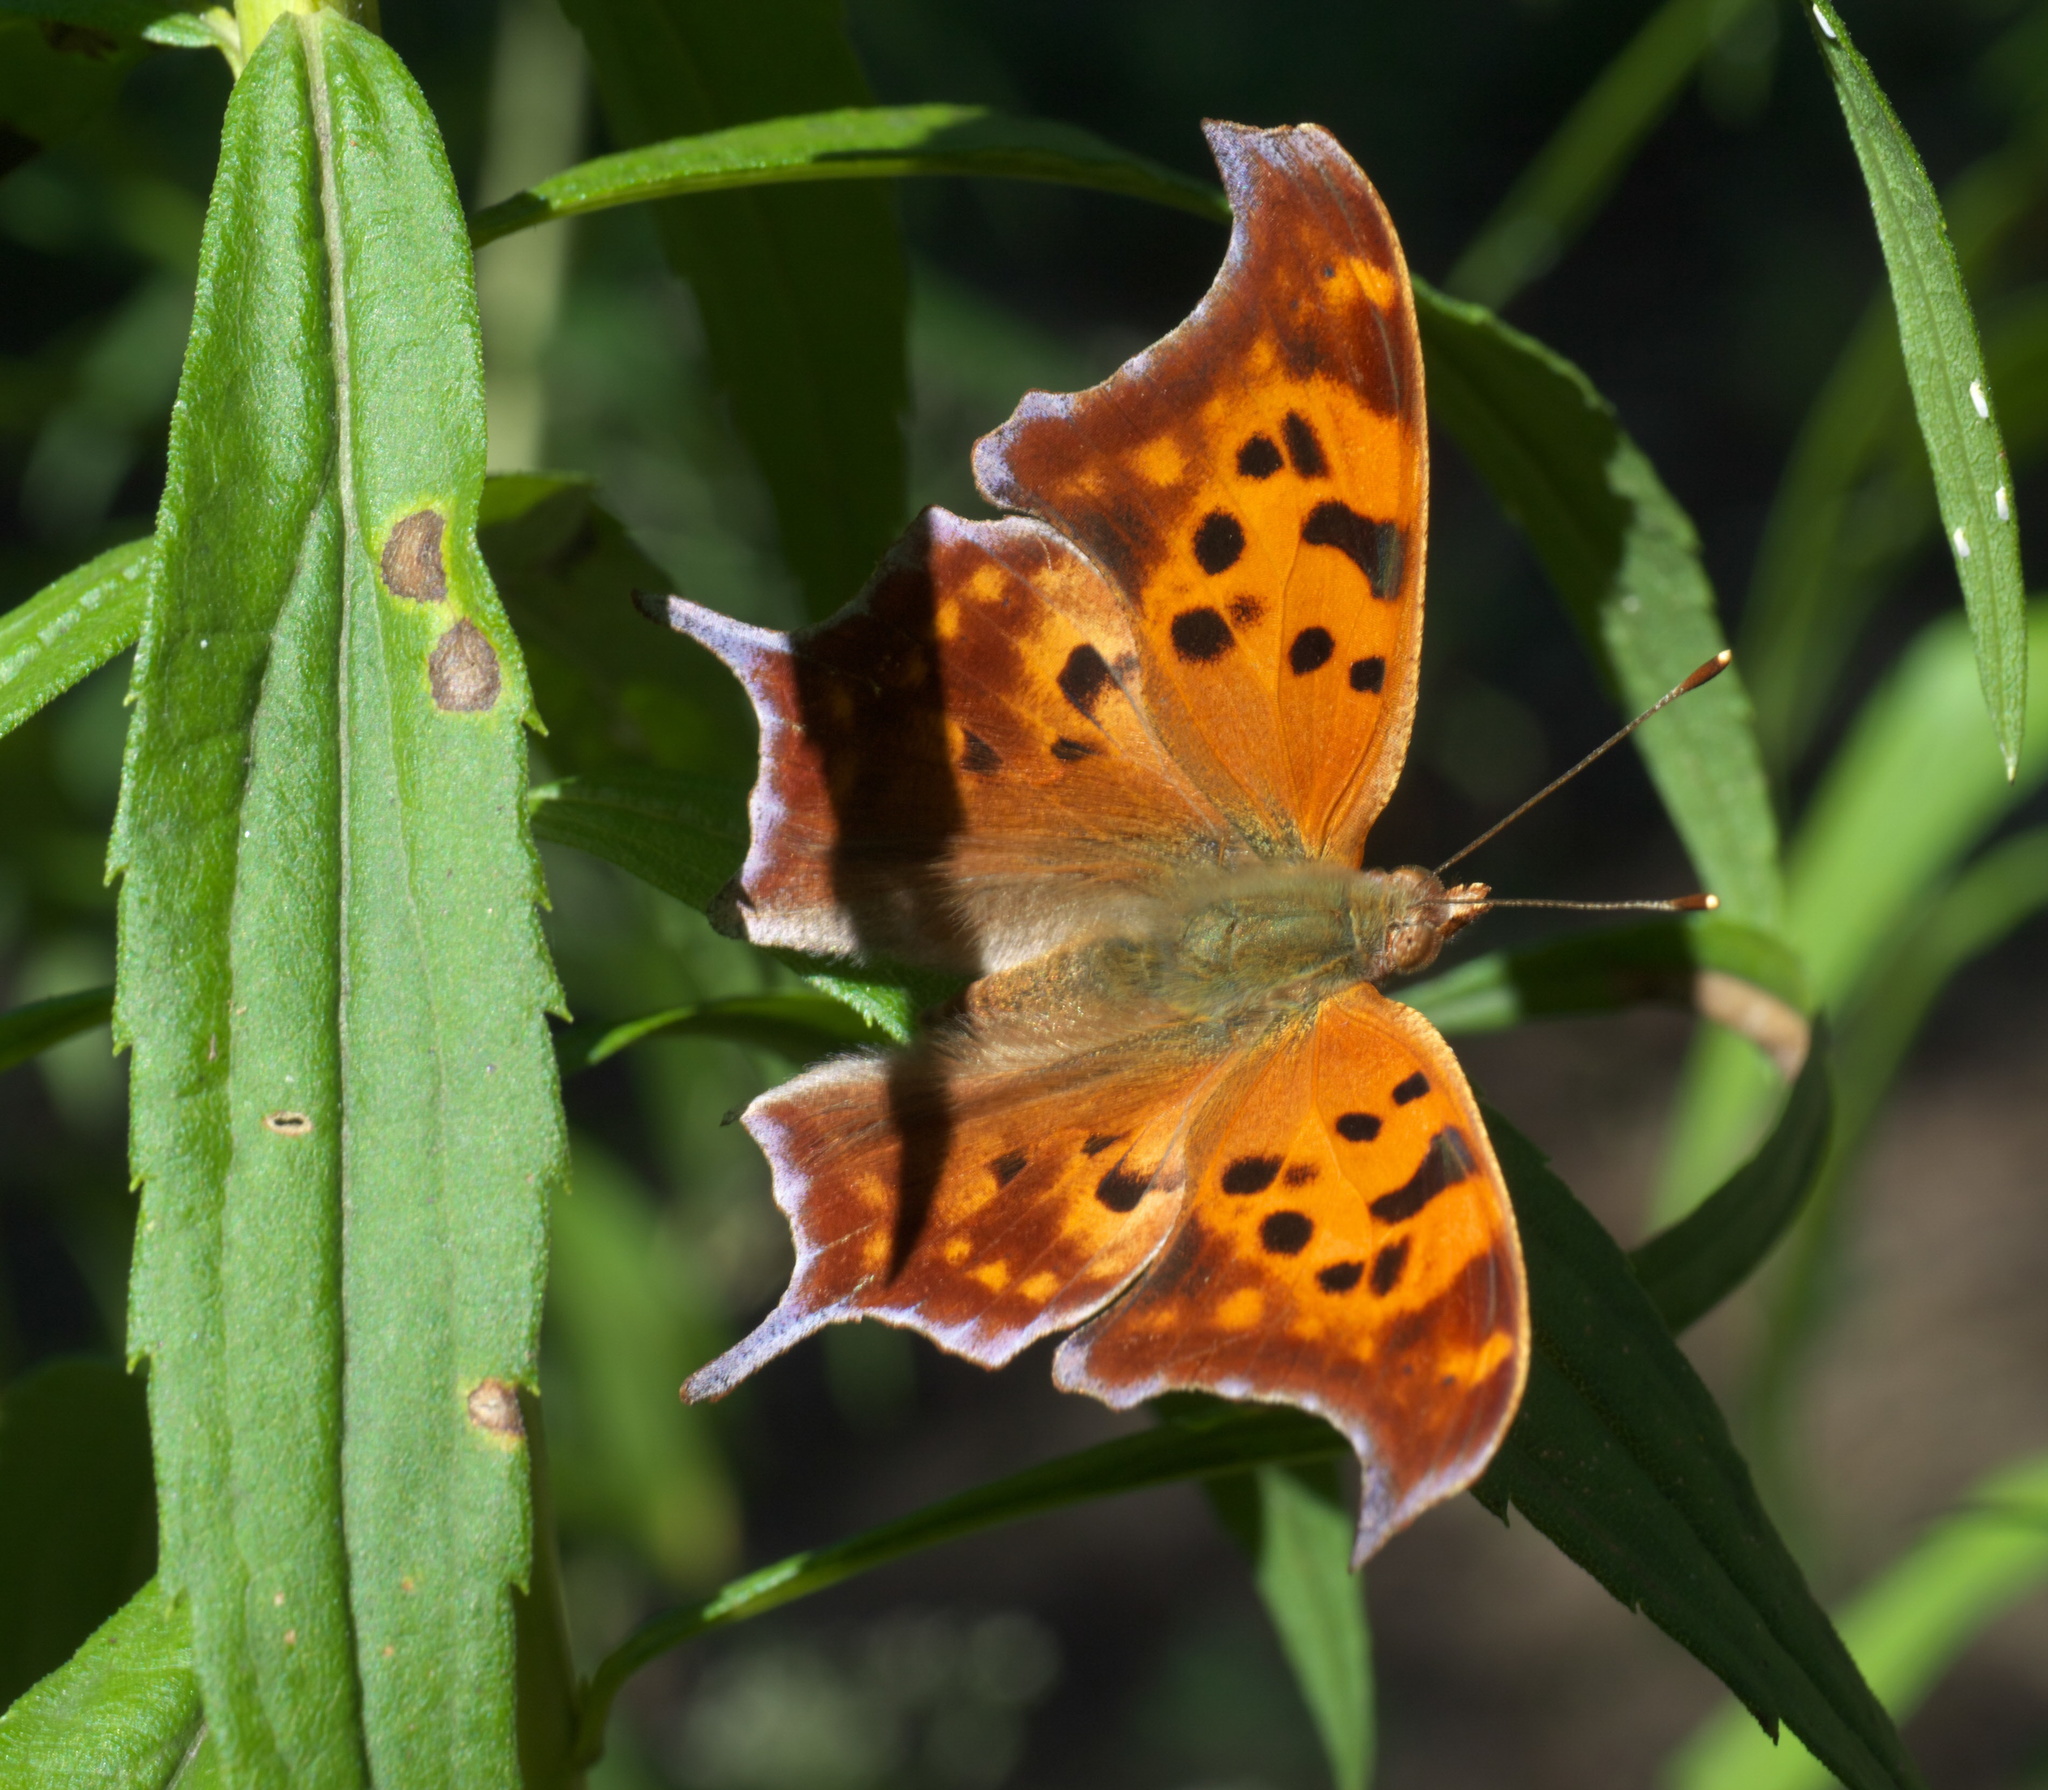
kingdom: Animalia
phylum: Arthropoda
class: Insecta
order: Lepidoptera
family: Nymphalidae
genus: Polygonia
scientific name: Polygonia interrogationis
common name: Question mark
